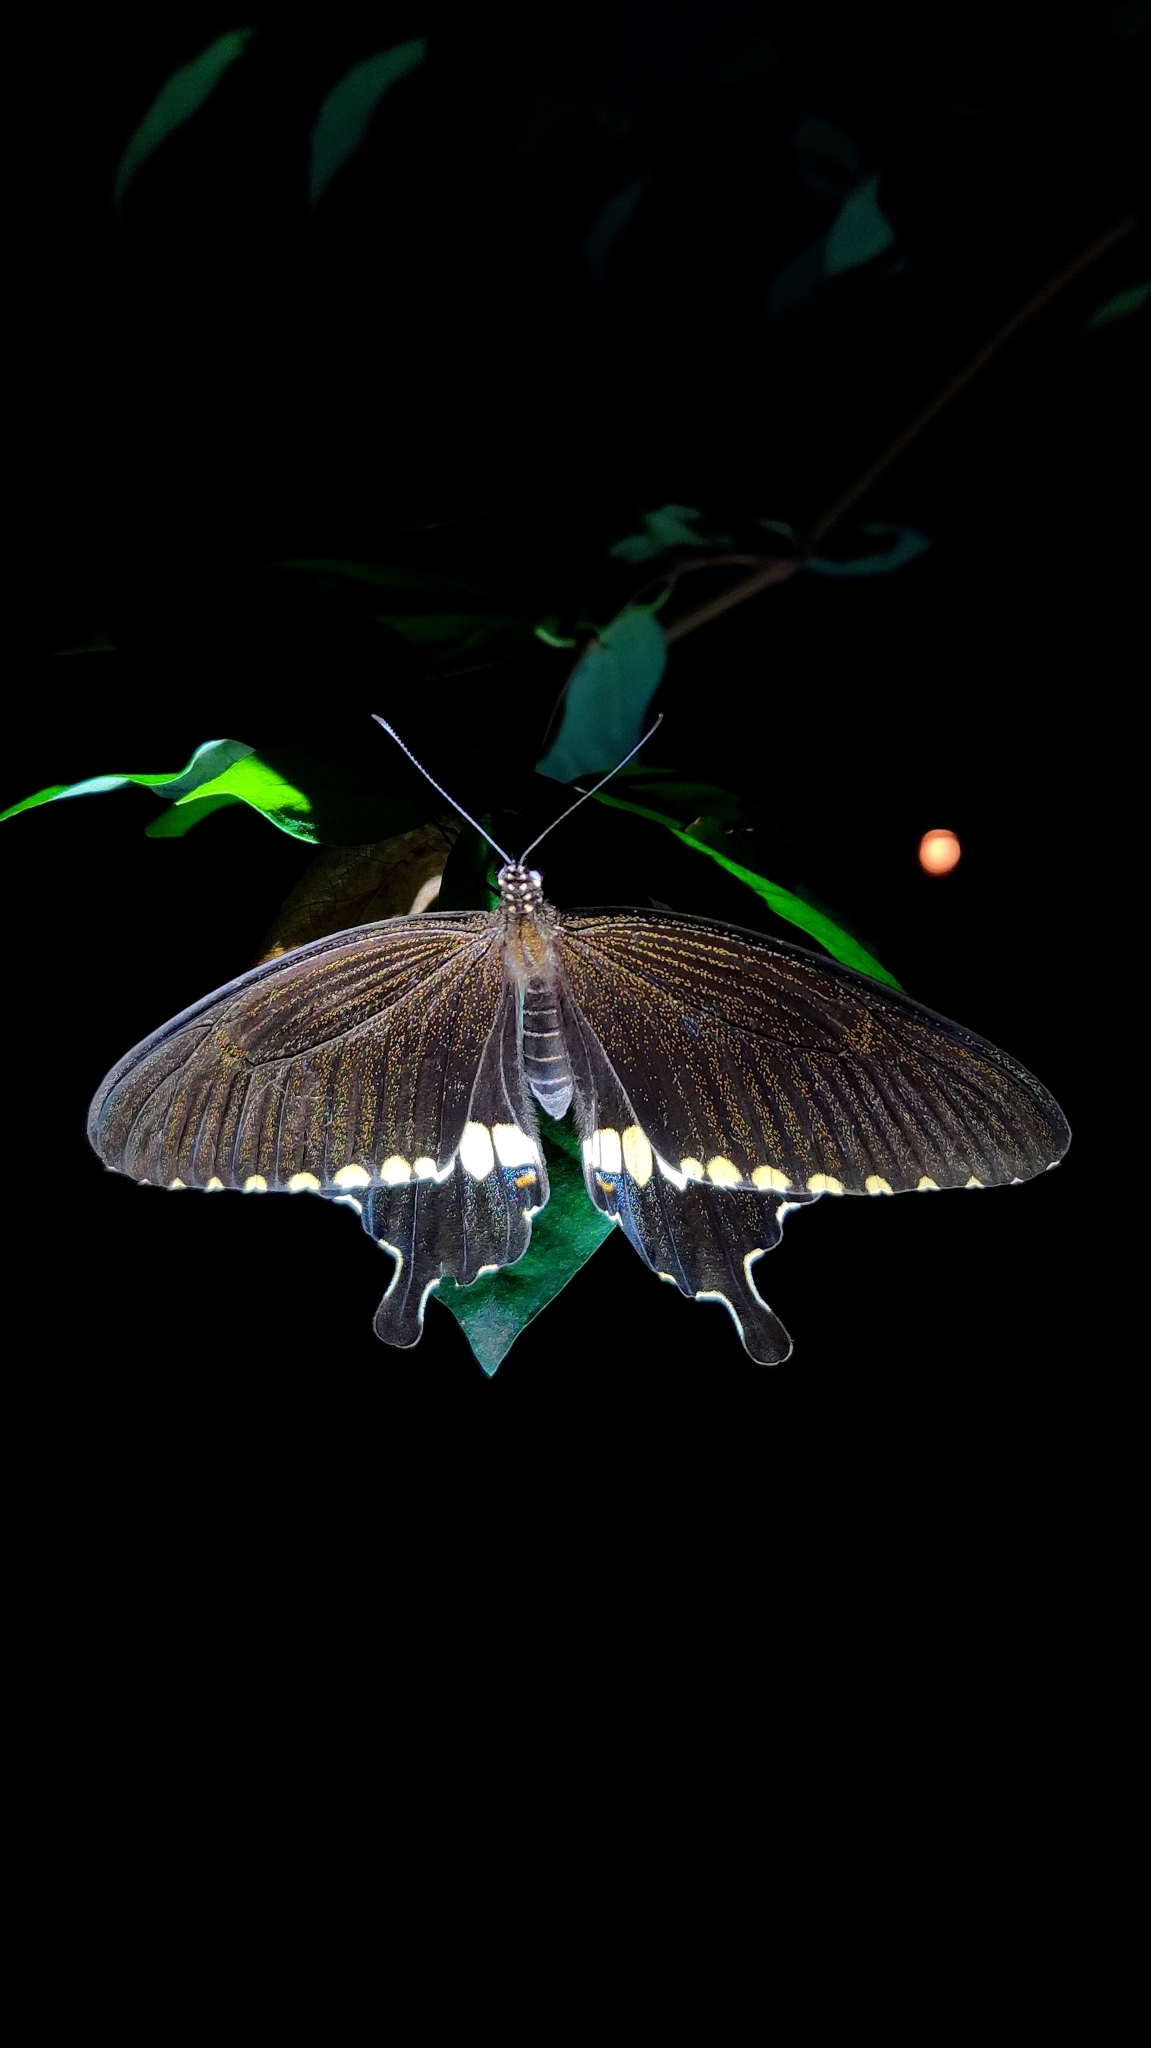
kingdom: Animalia
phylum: Arthropoda
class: Insecta
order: Lepidoptera
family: Papilionidae
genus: Papilio
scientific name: Papilio polytes
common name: Common mormon
